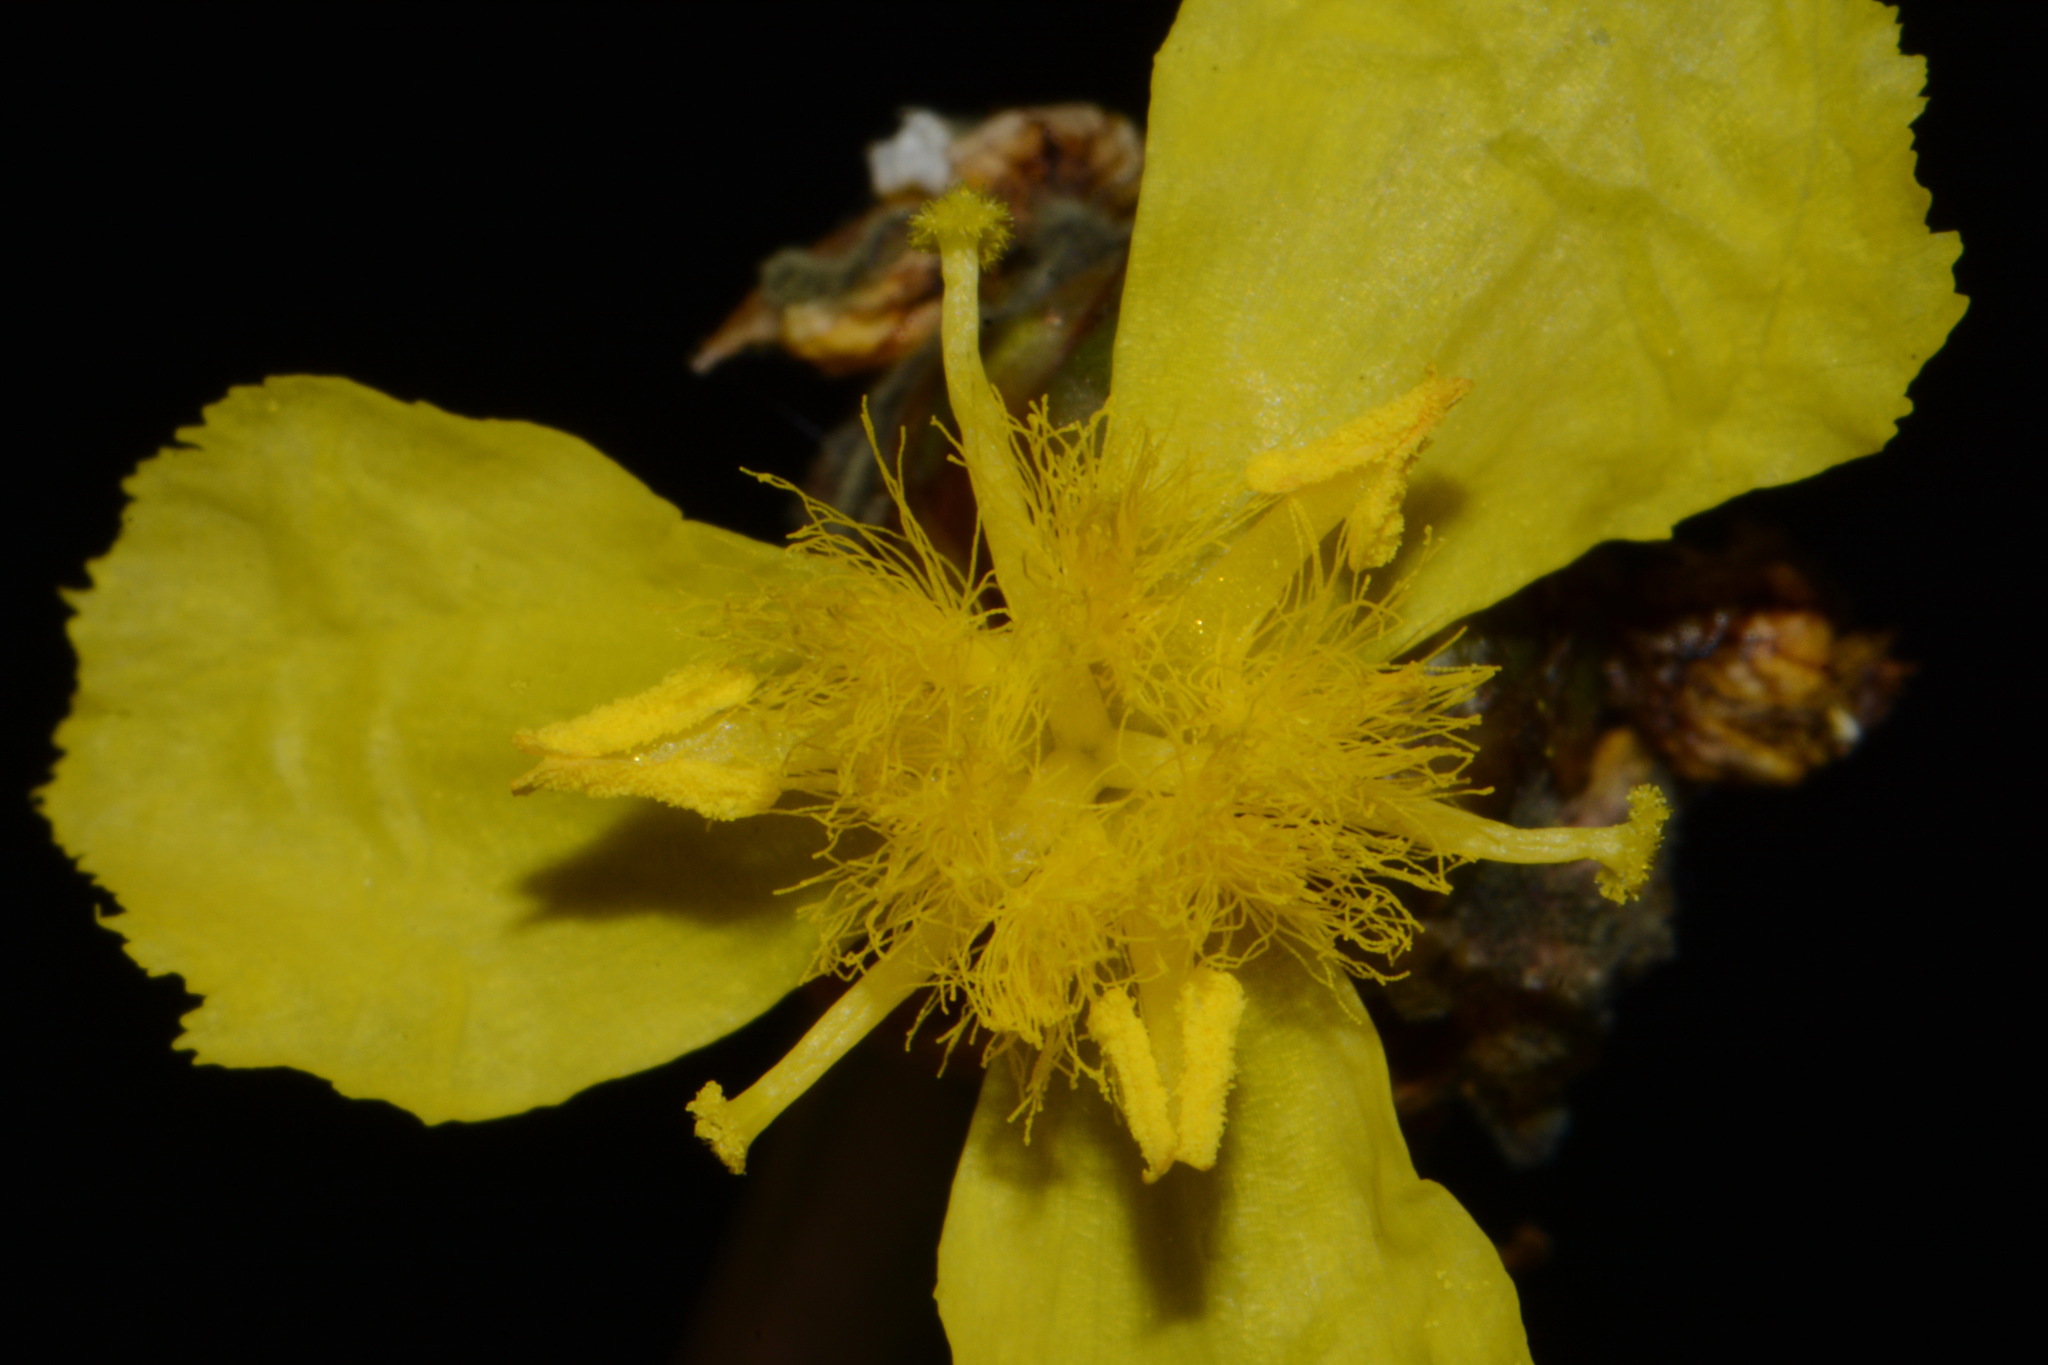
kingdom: Plantae
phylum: Tracheophyta
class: Liliopsida
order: Poales
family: Xyridaceae
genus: Xyris
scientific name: Xyris laxifolia
